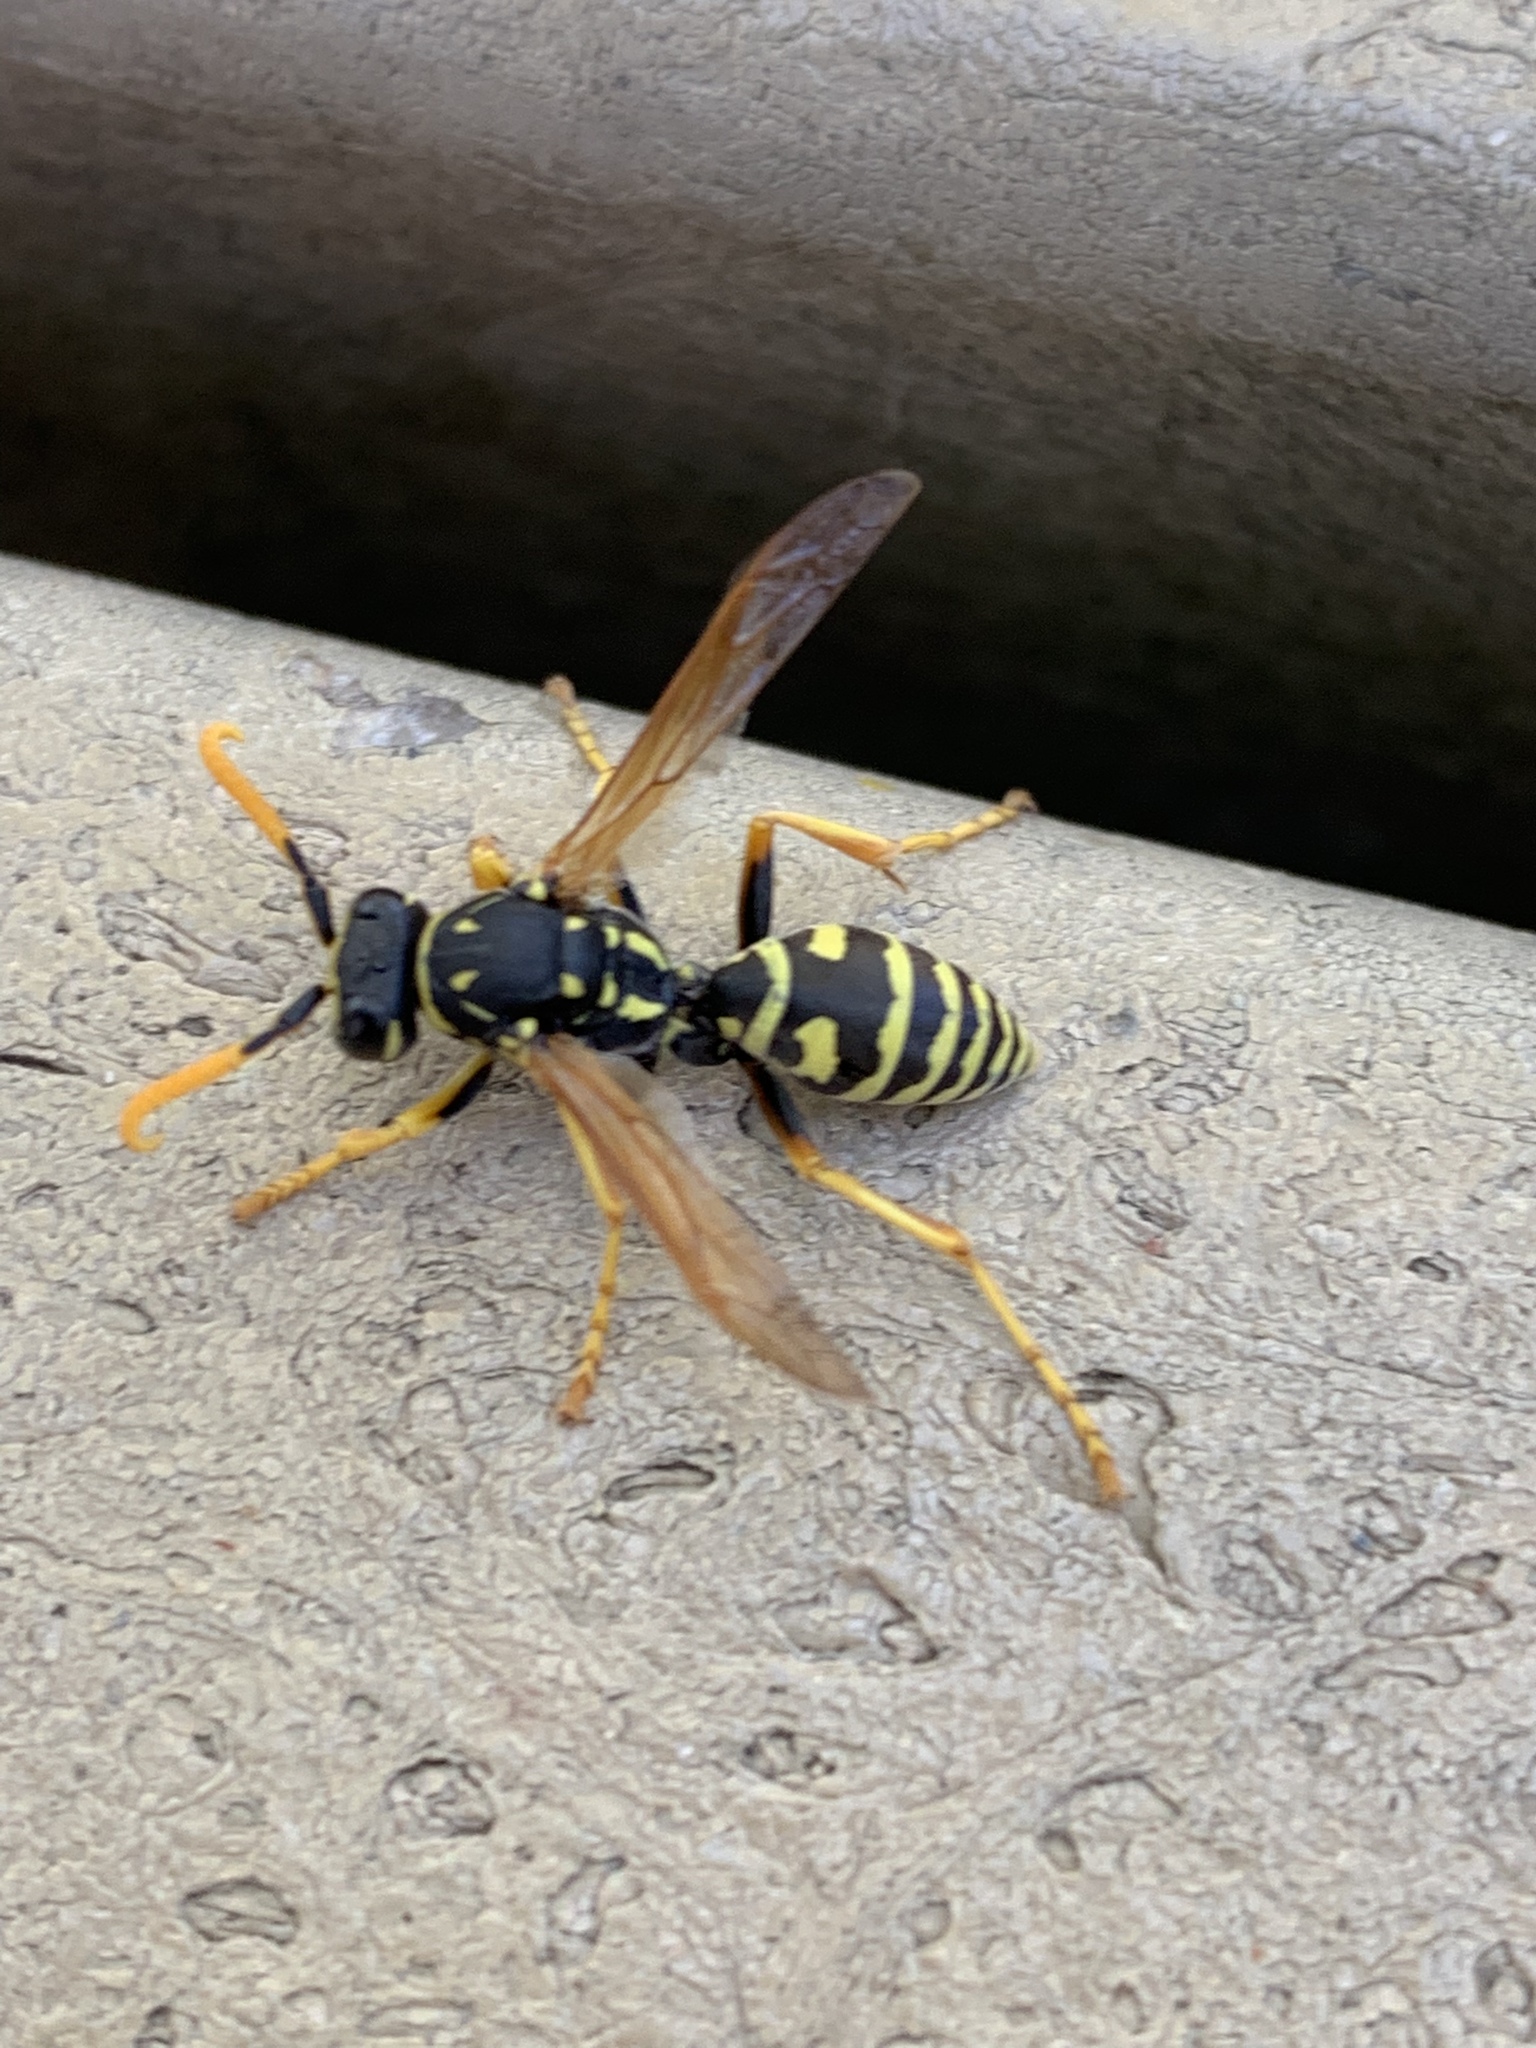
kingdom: Animalia
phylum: Arthropoda
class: Insecta
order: Hymenoptera
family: Eumenidae
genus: Polistes
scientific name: Polistes dominula
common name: Paper wasp
